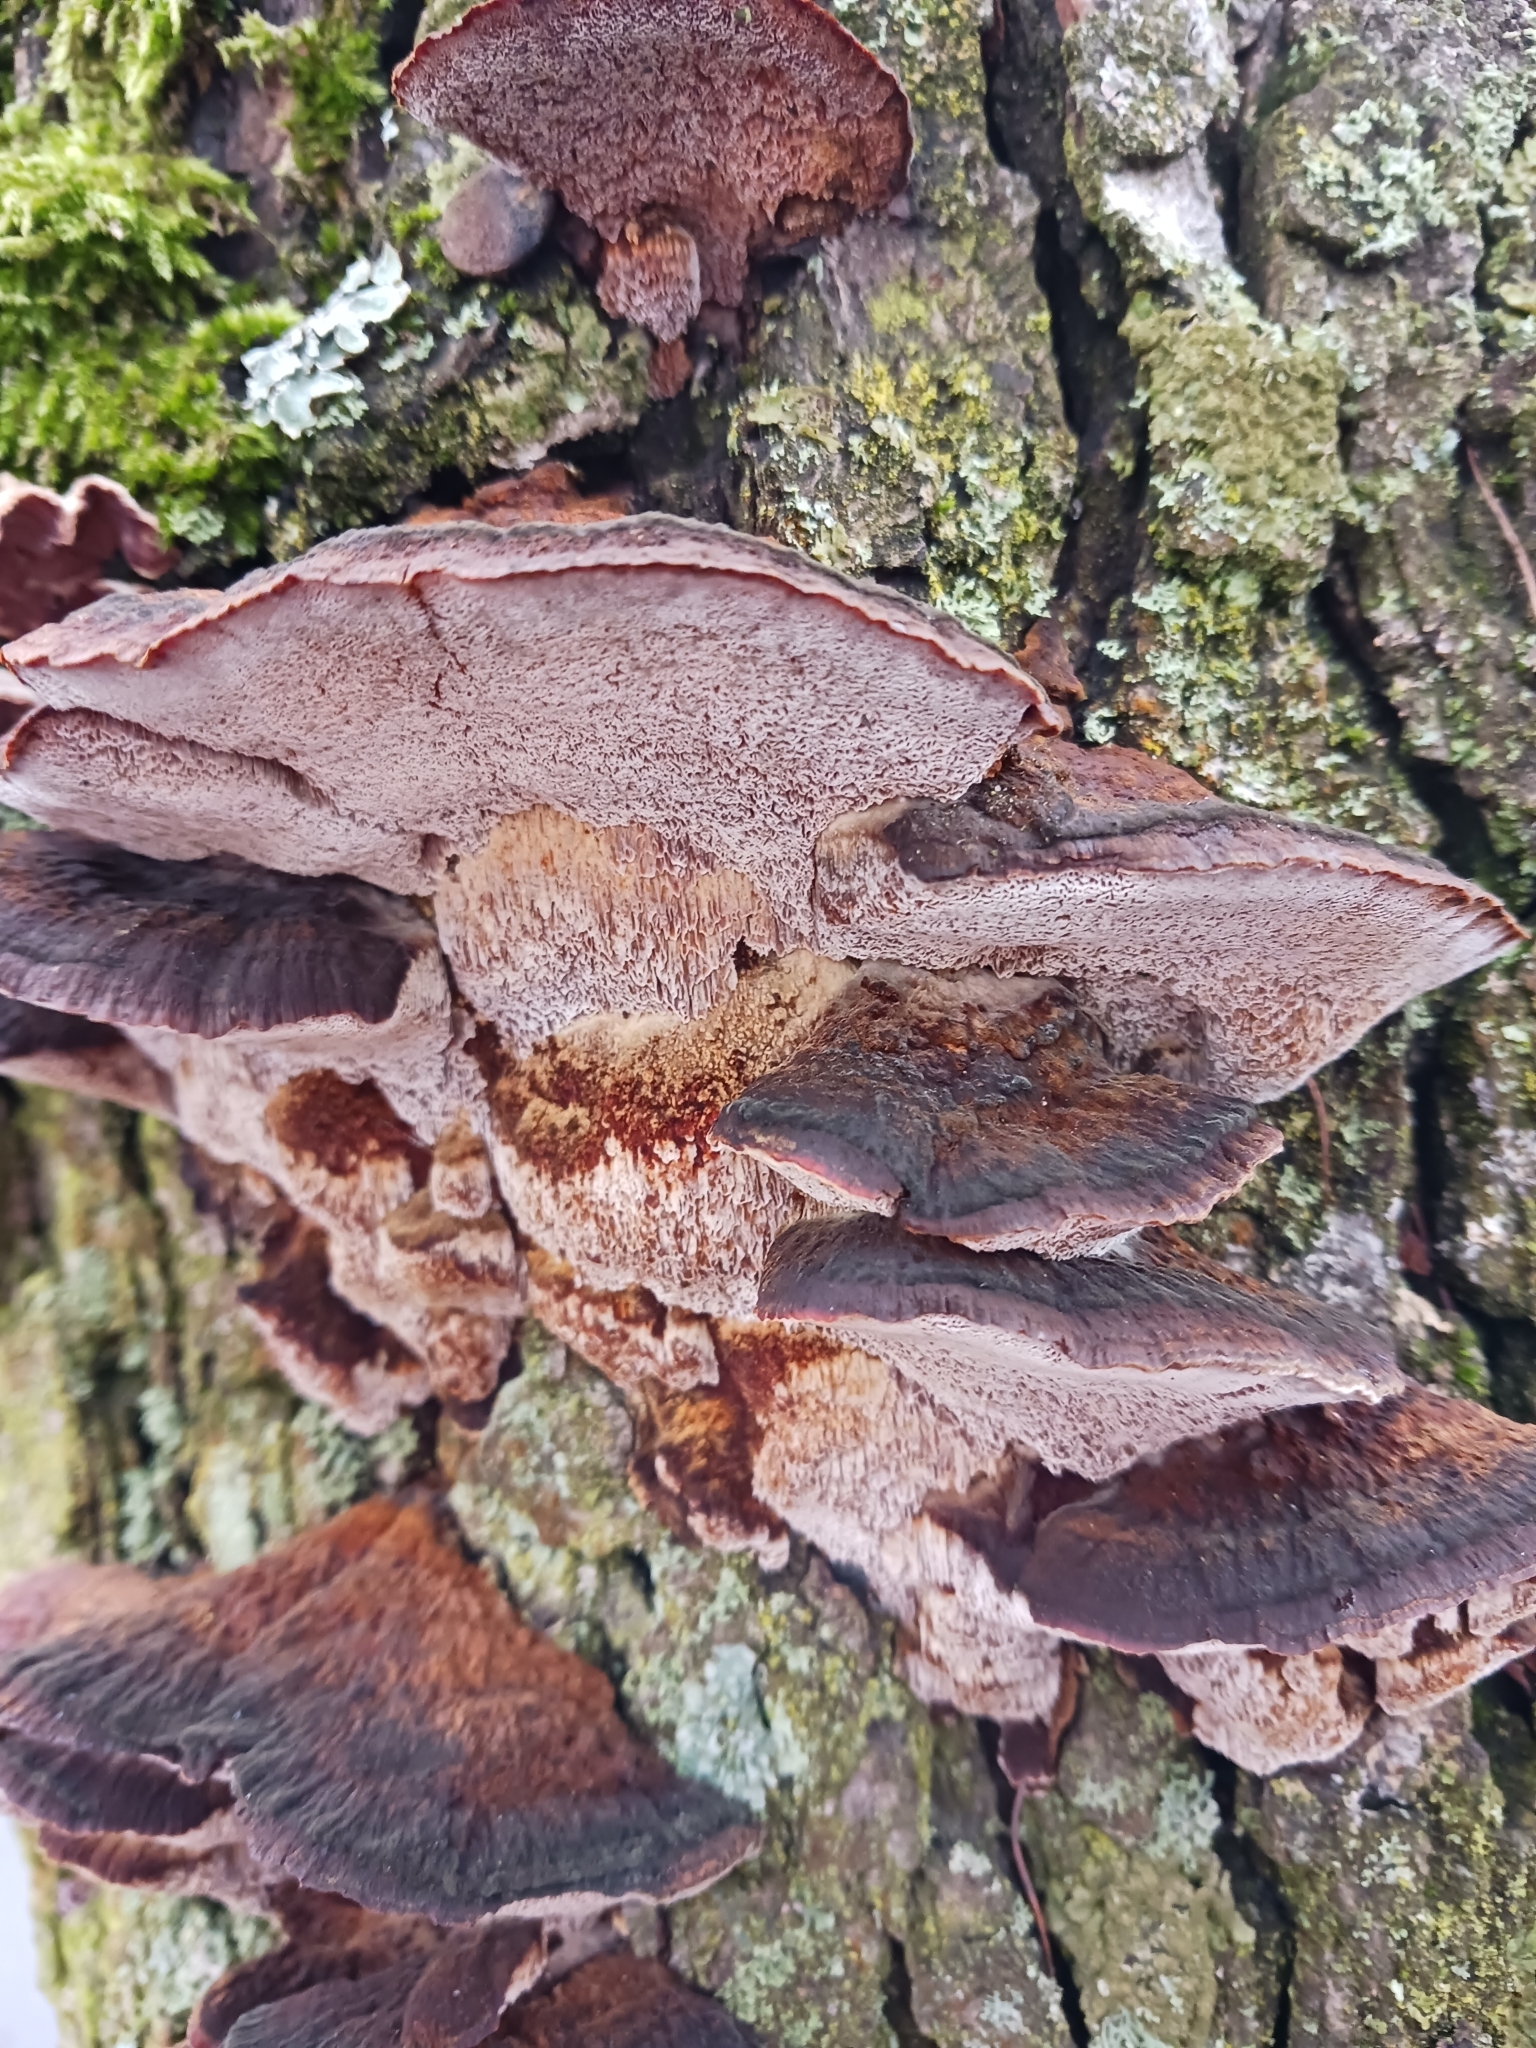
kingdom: Fungi
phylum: Basidiomycota
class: Agaricomycetes
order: Hymenochaetales
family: Hymenochaetaceae
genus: Xanthoporia
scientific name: Xanthoporia radiata
